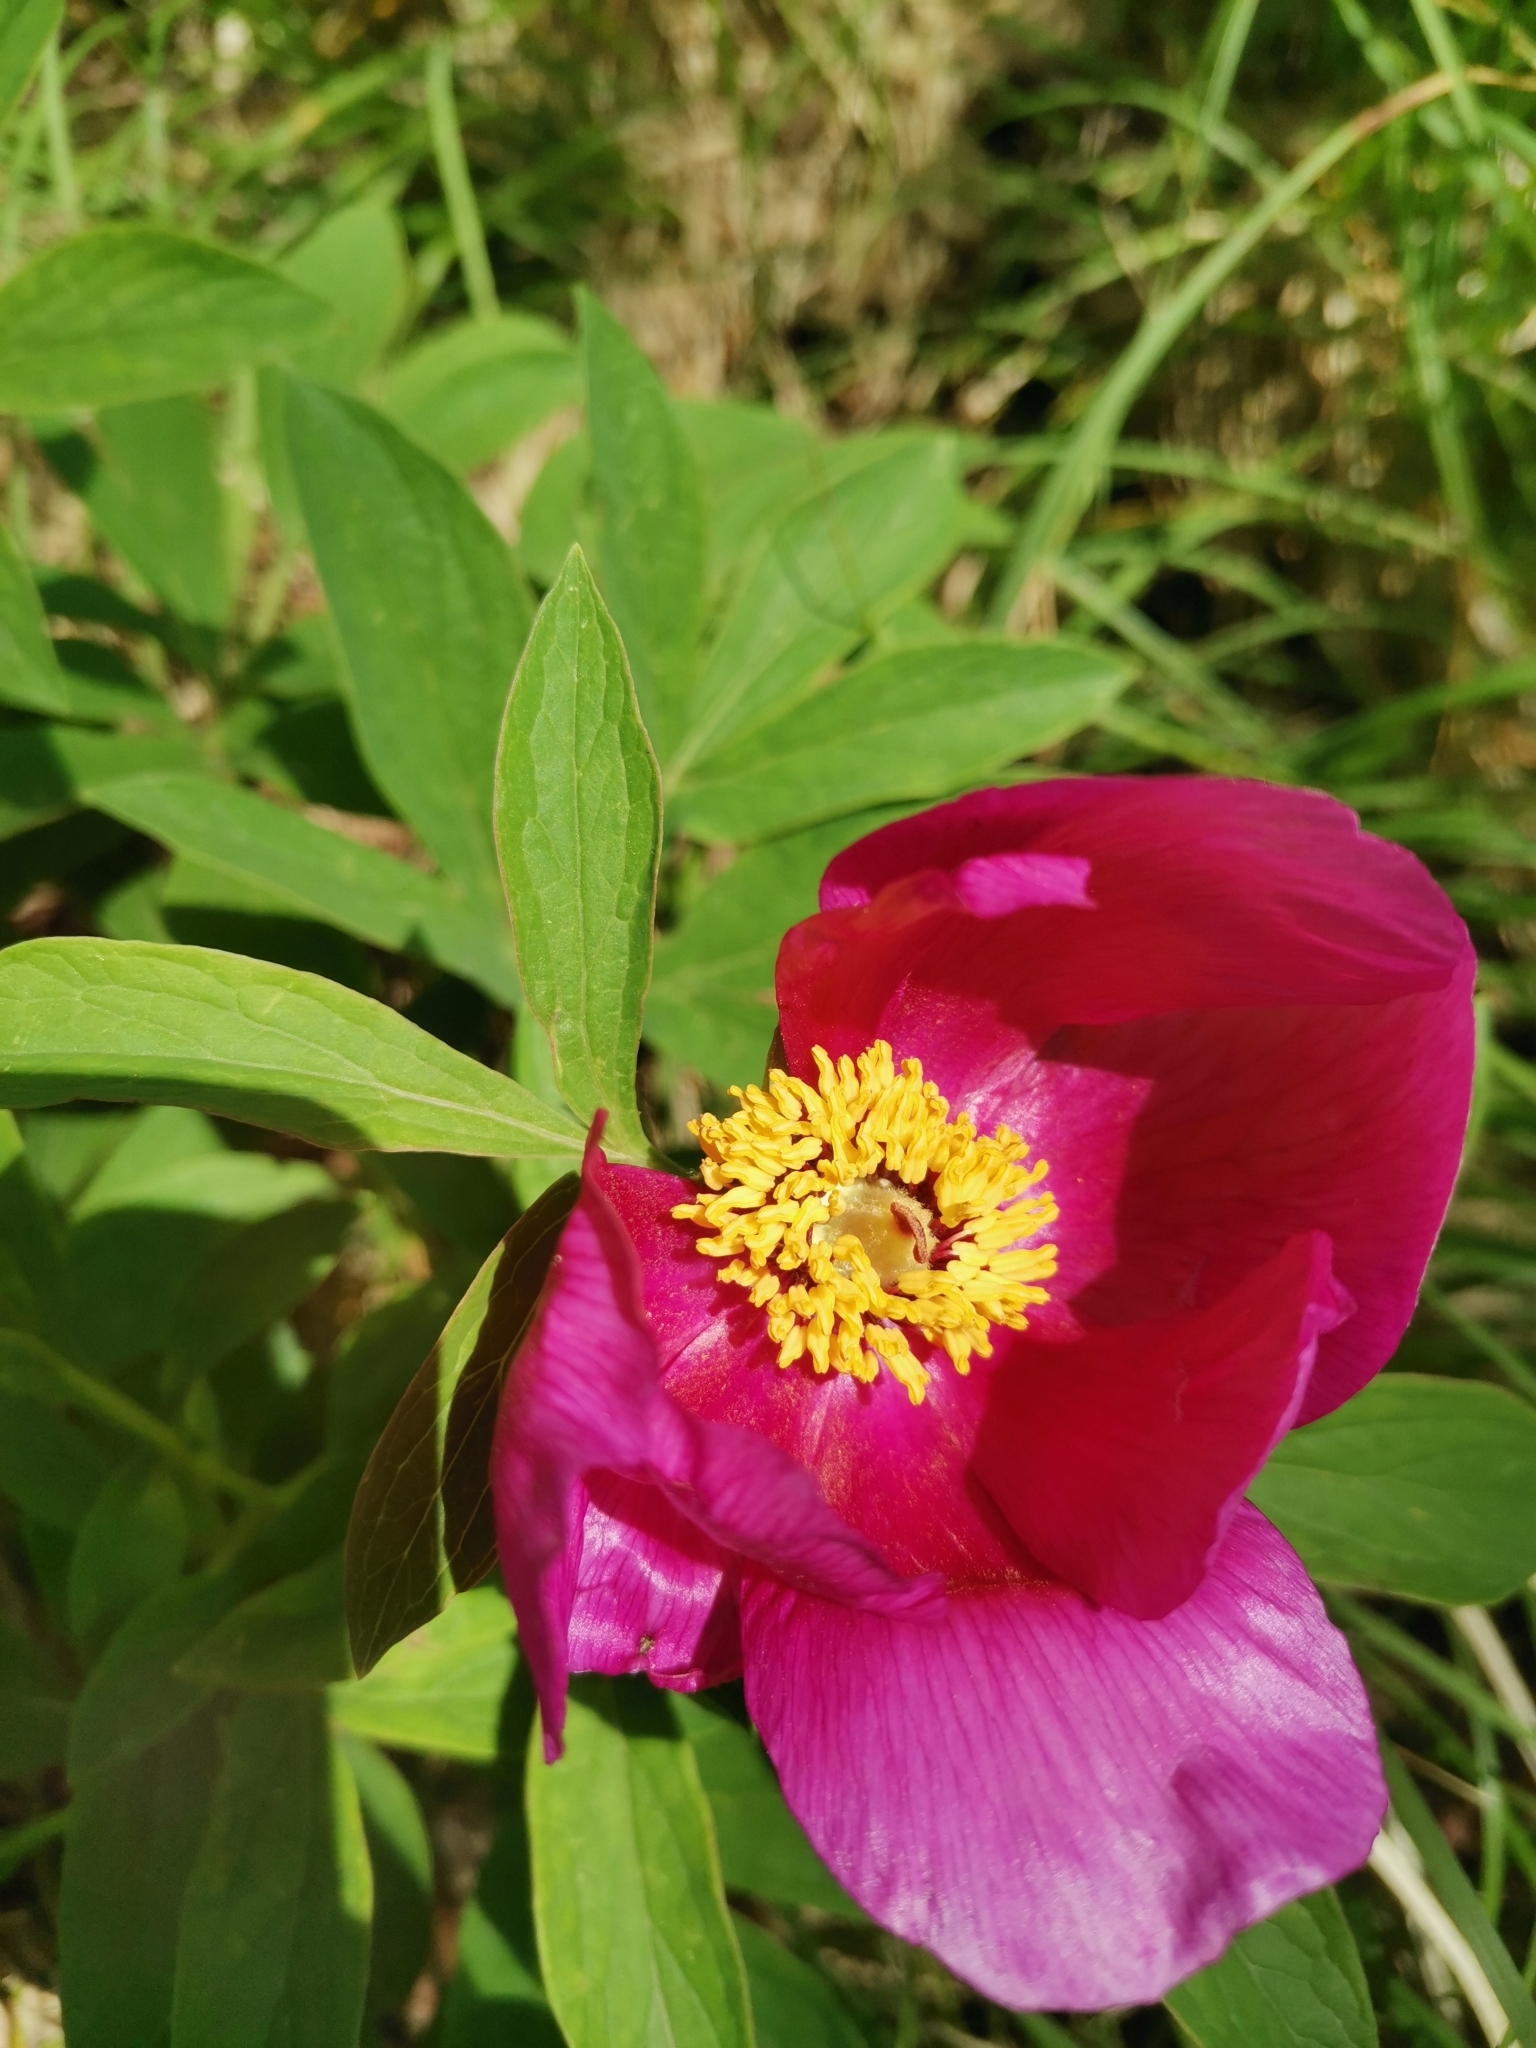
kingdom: Plantae
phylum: Tracheophyta
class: Magnoliopsida
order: Saxifragales
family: Paeoniaceae
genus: Paeonia
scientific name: Paeonia officinalis
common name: Common peony
